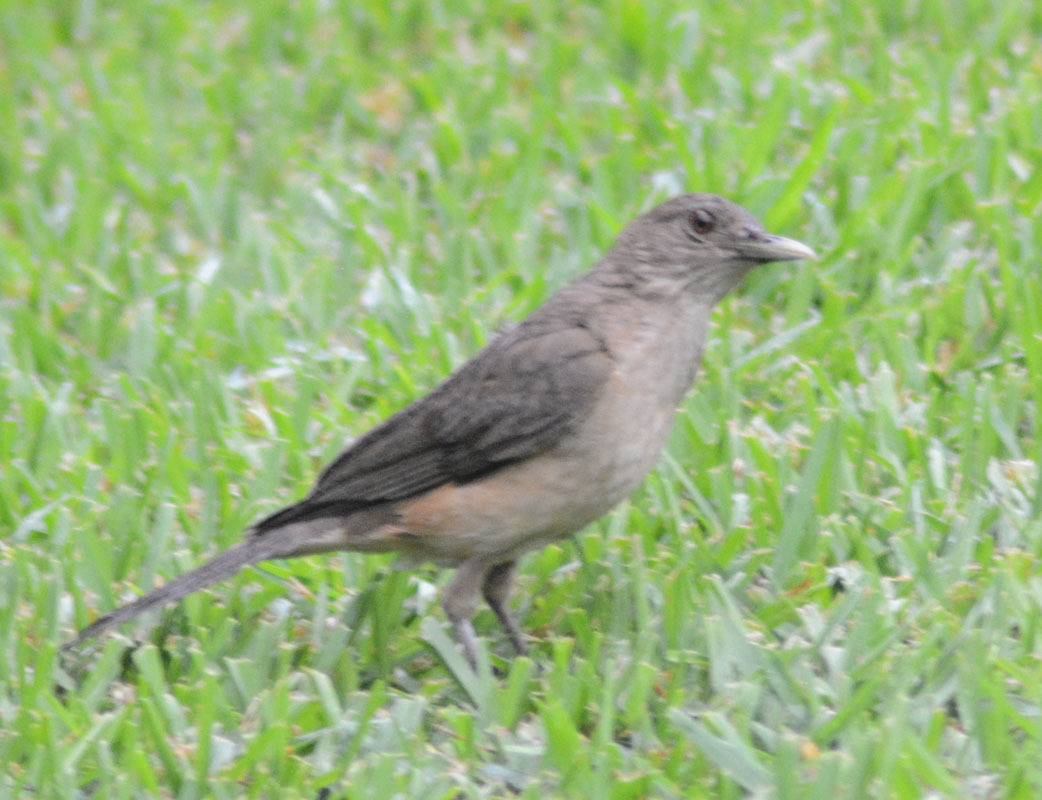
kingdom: Animalia
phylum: Chordata
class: Aves
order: Passeriformes
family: Turdidae
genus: Turdus
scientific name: Turdus grayi
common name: Clay-colored thrush
